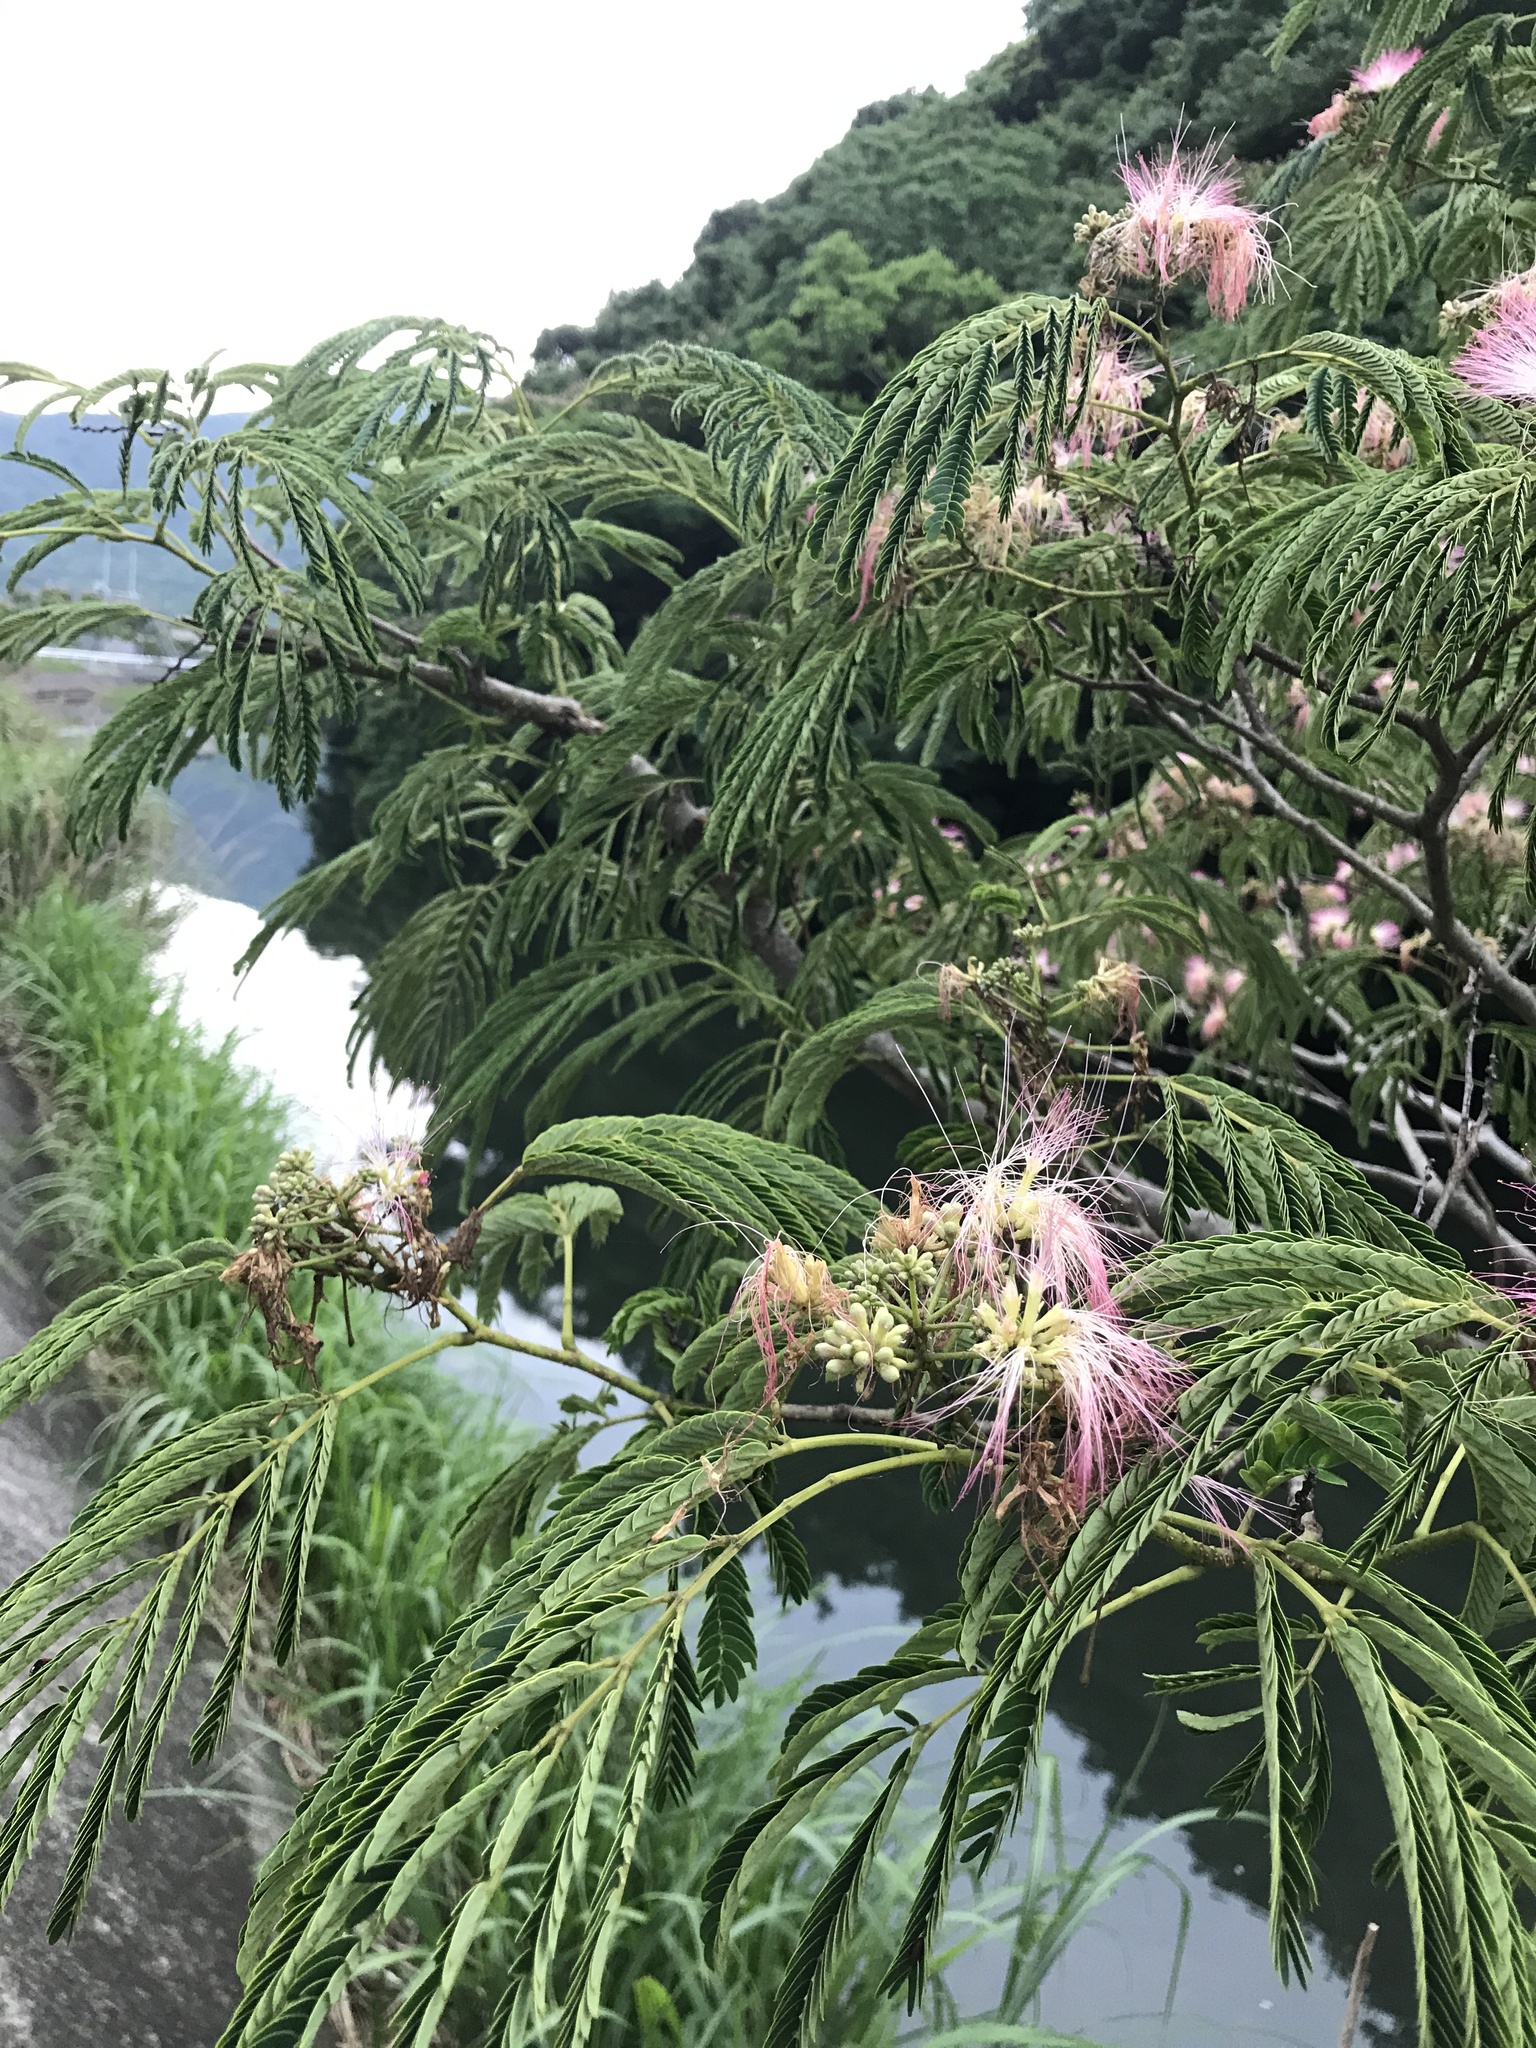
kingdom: Plantae
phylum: Tracheophyta
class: Magnoliopsida
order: Fabales
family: Fabaceae
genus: Albizia
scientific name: Albizia julibrissin
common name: Silktree
